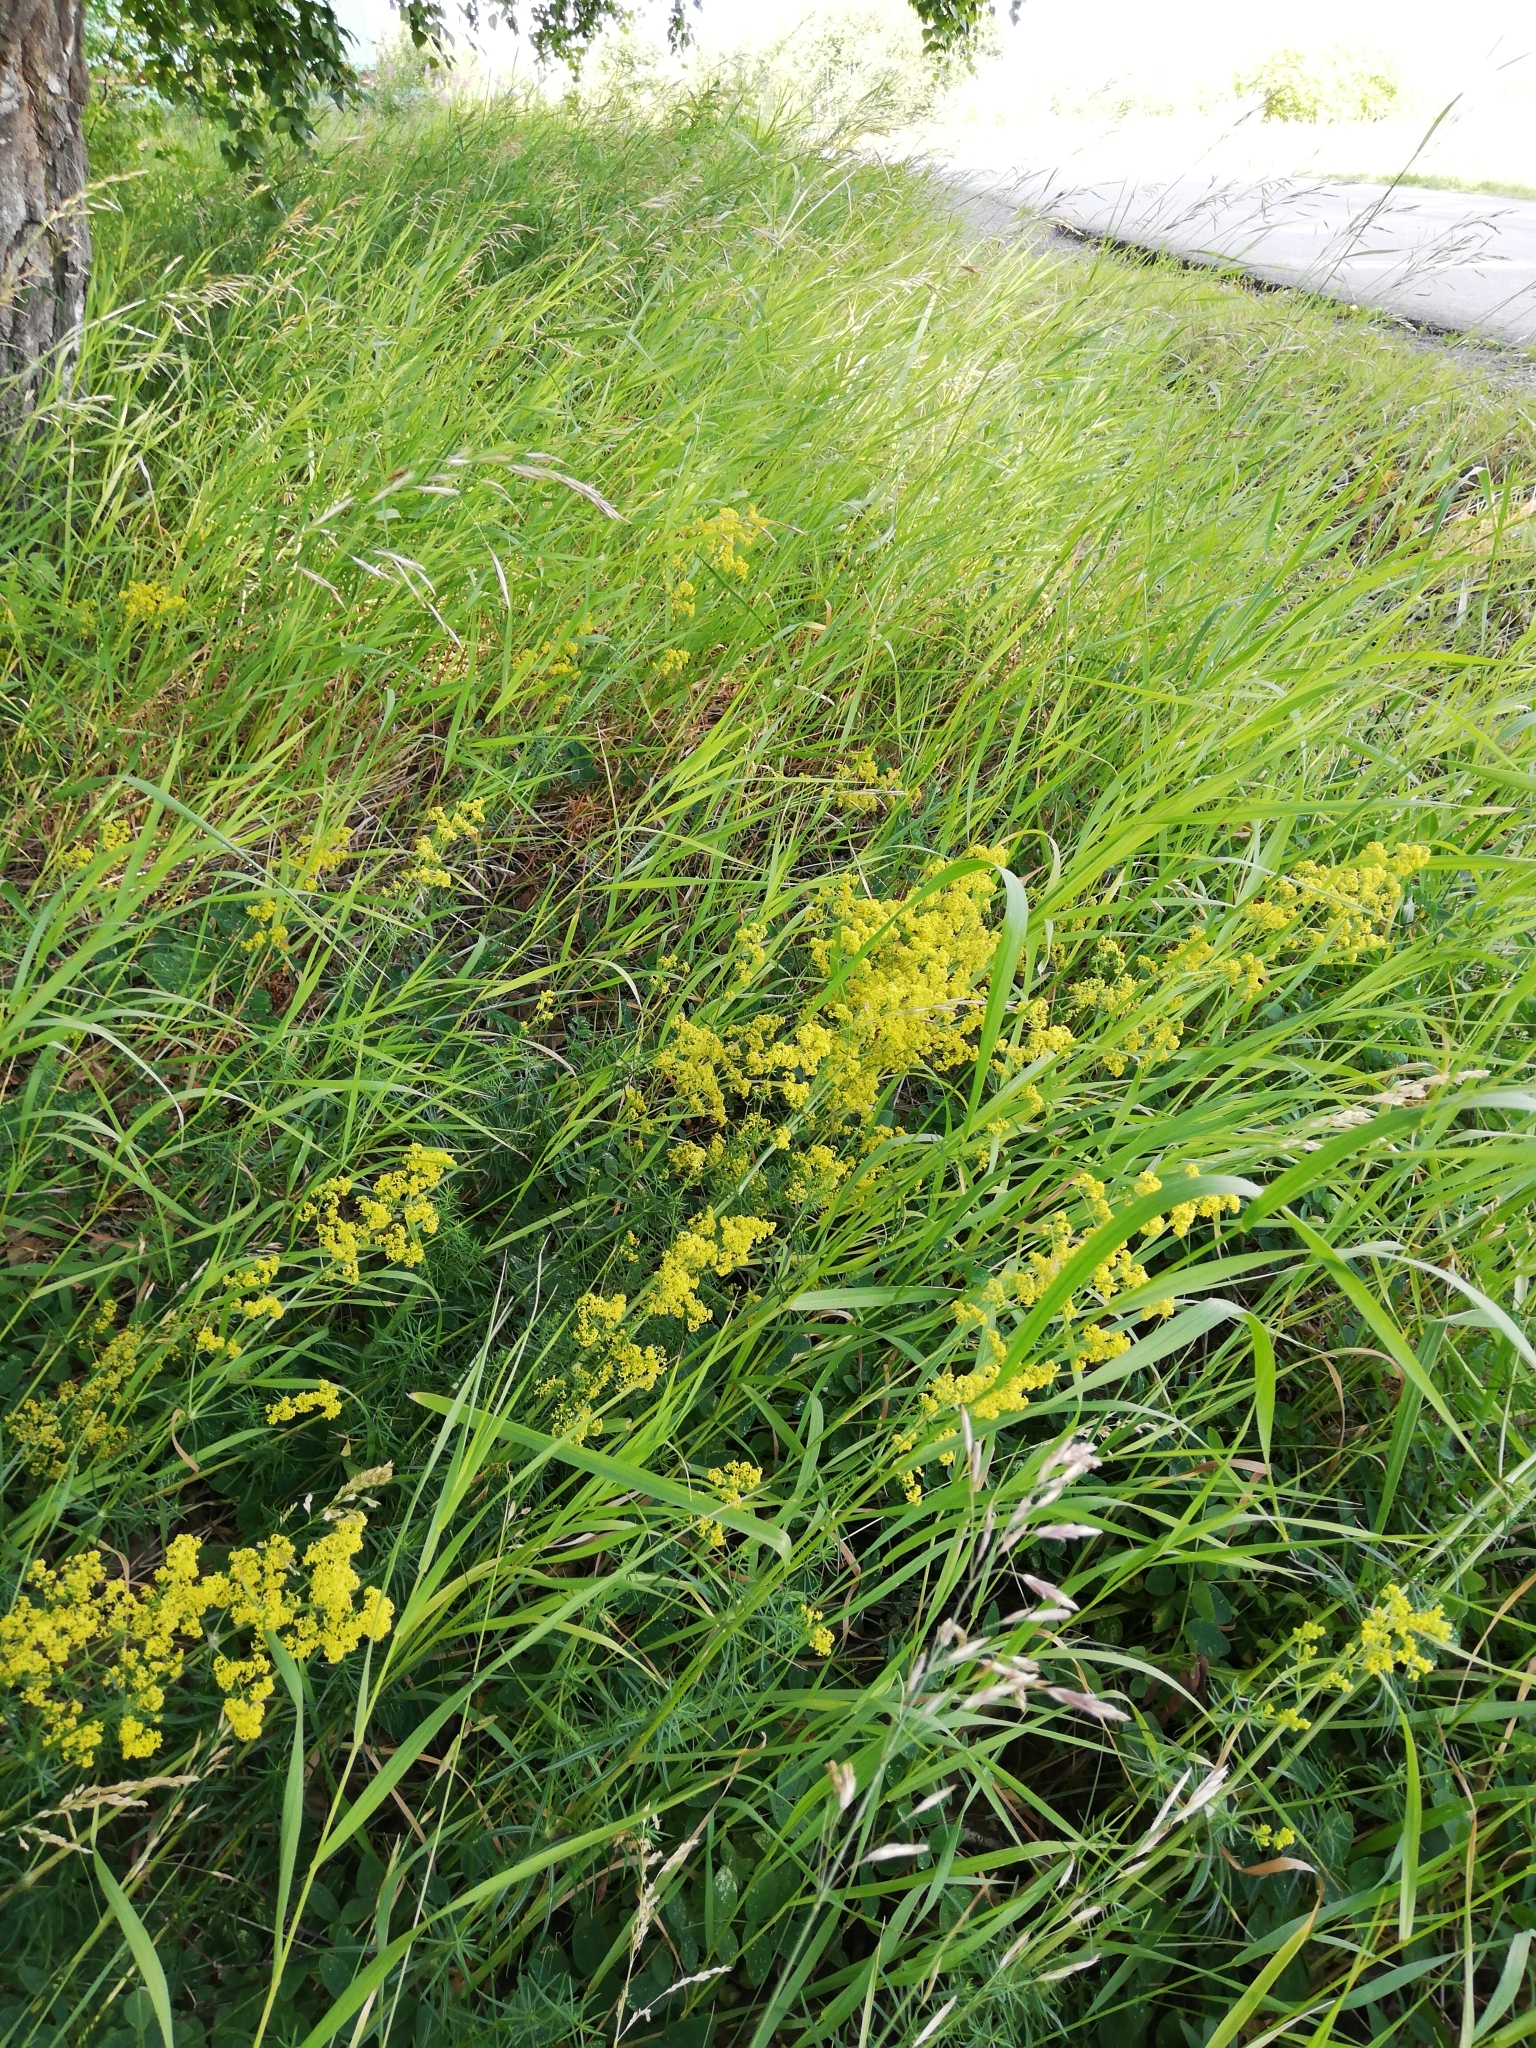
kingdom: Plantae
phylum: Tracheophyta
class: Magnoliopsida
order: Gentianales
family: Rubiaceae
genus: Galium
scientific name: Galium verum
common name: Lady's bedstraw
